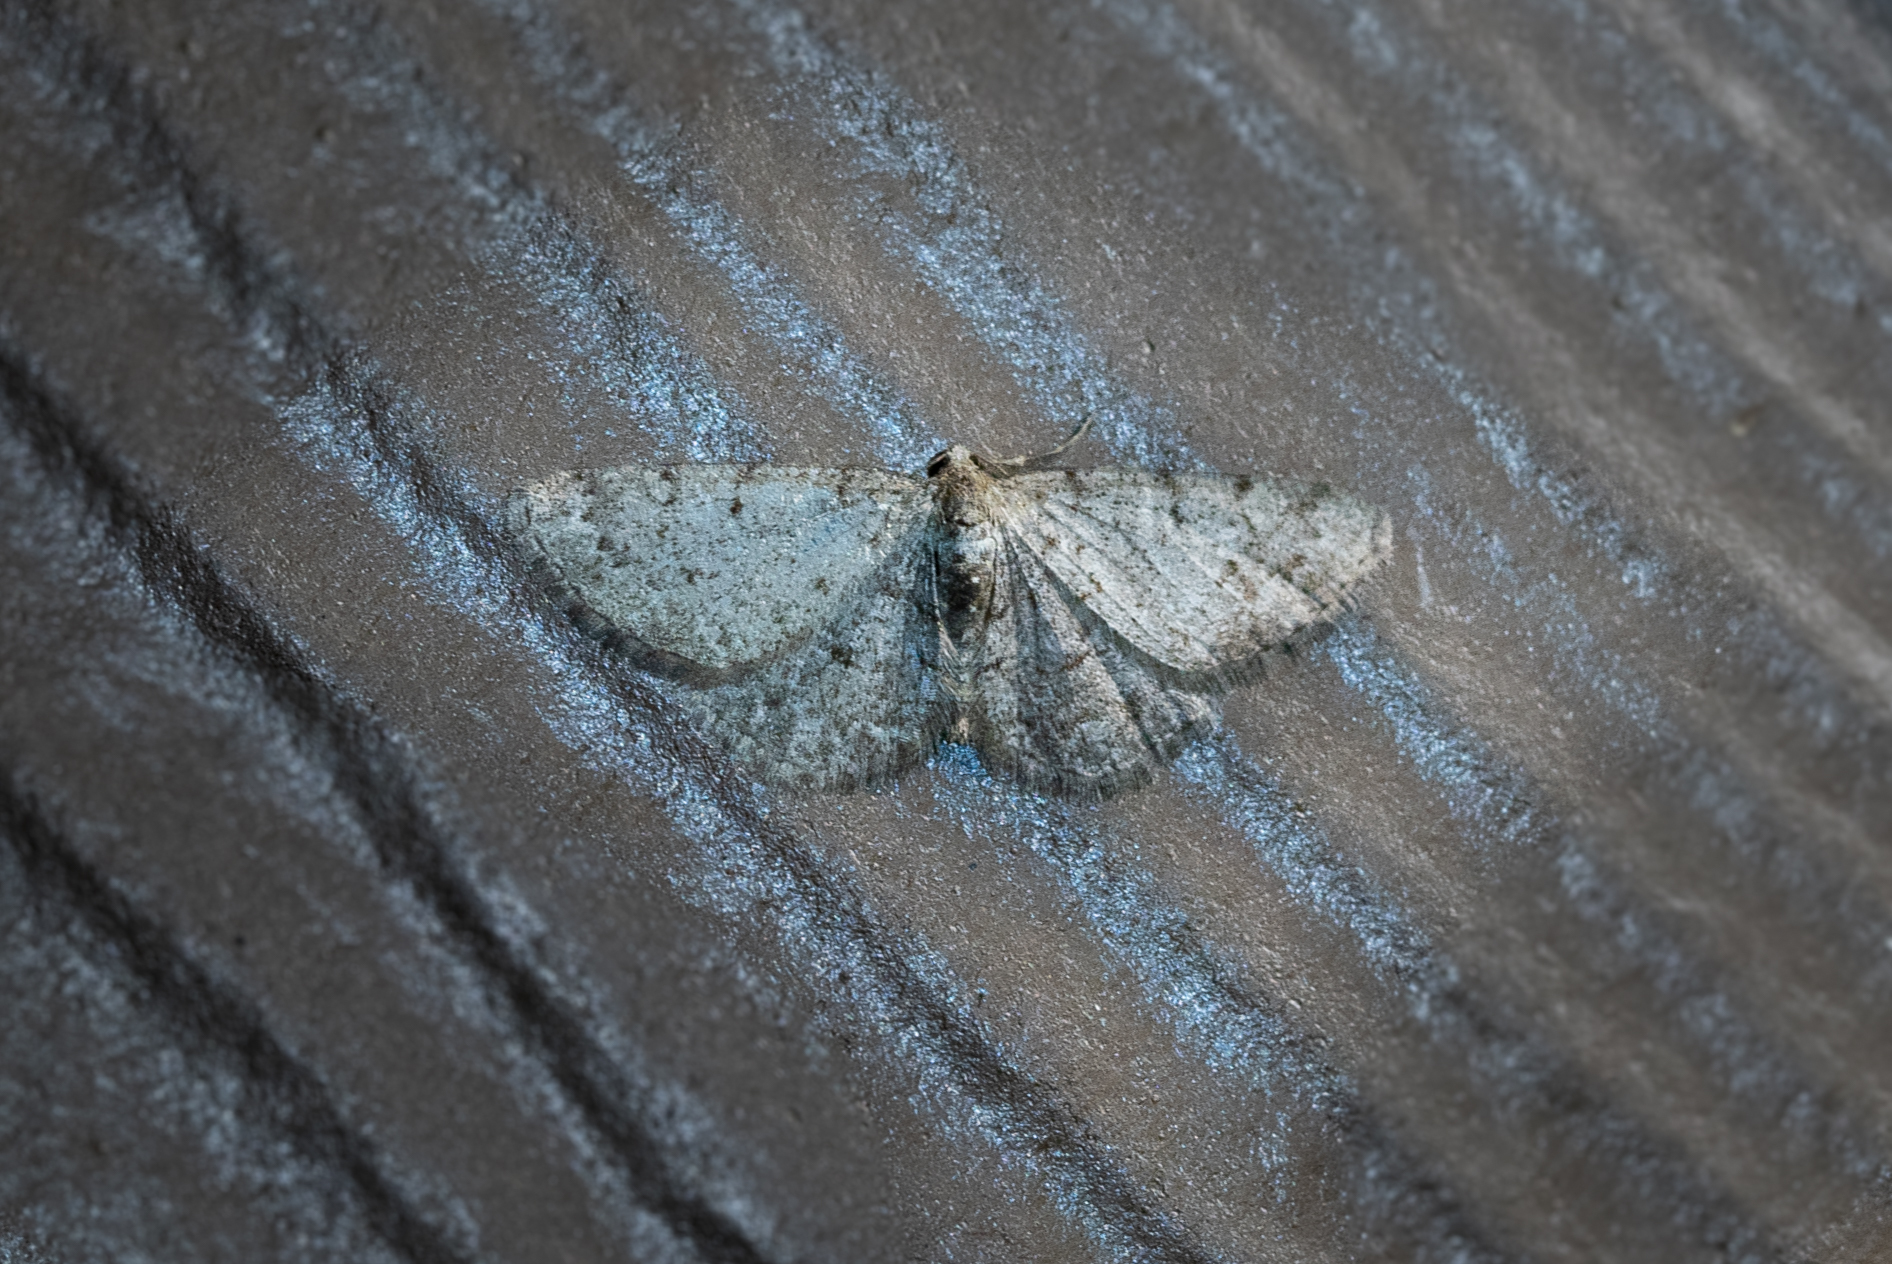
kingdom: Animalia
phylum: Arthropoda
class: Insecta
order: Lepidoptera
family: Geometridae
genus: Aethalura
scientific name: Aethalura intertexta
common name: Four-barred gray
